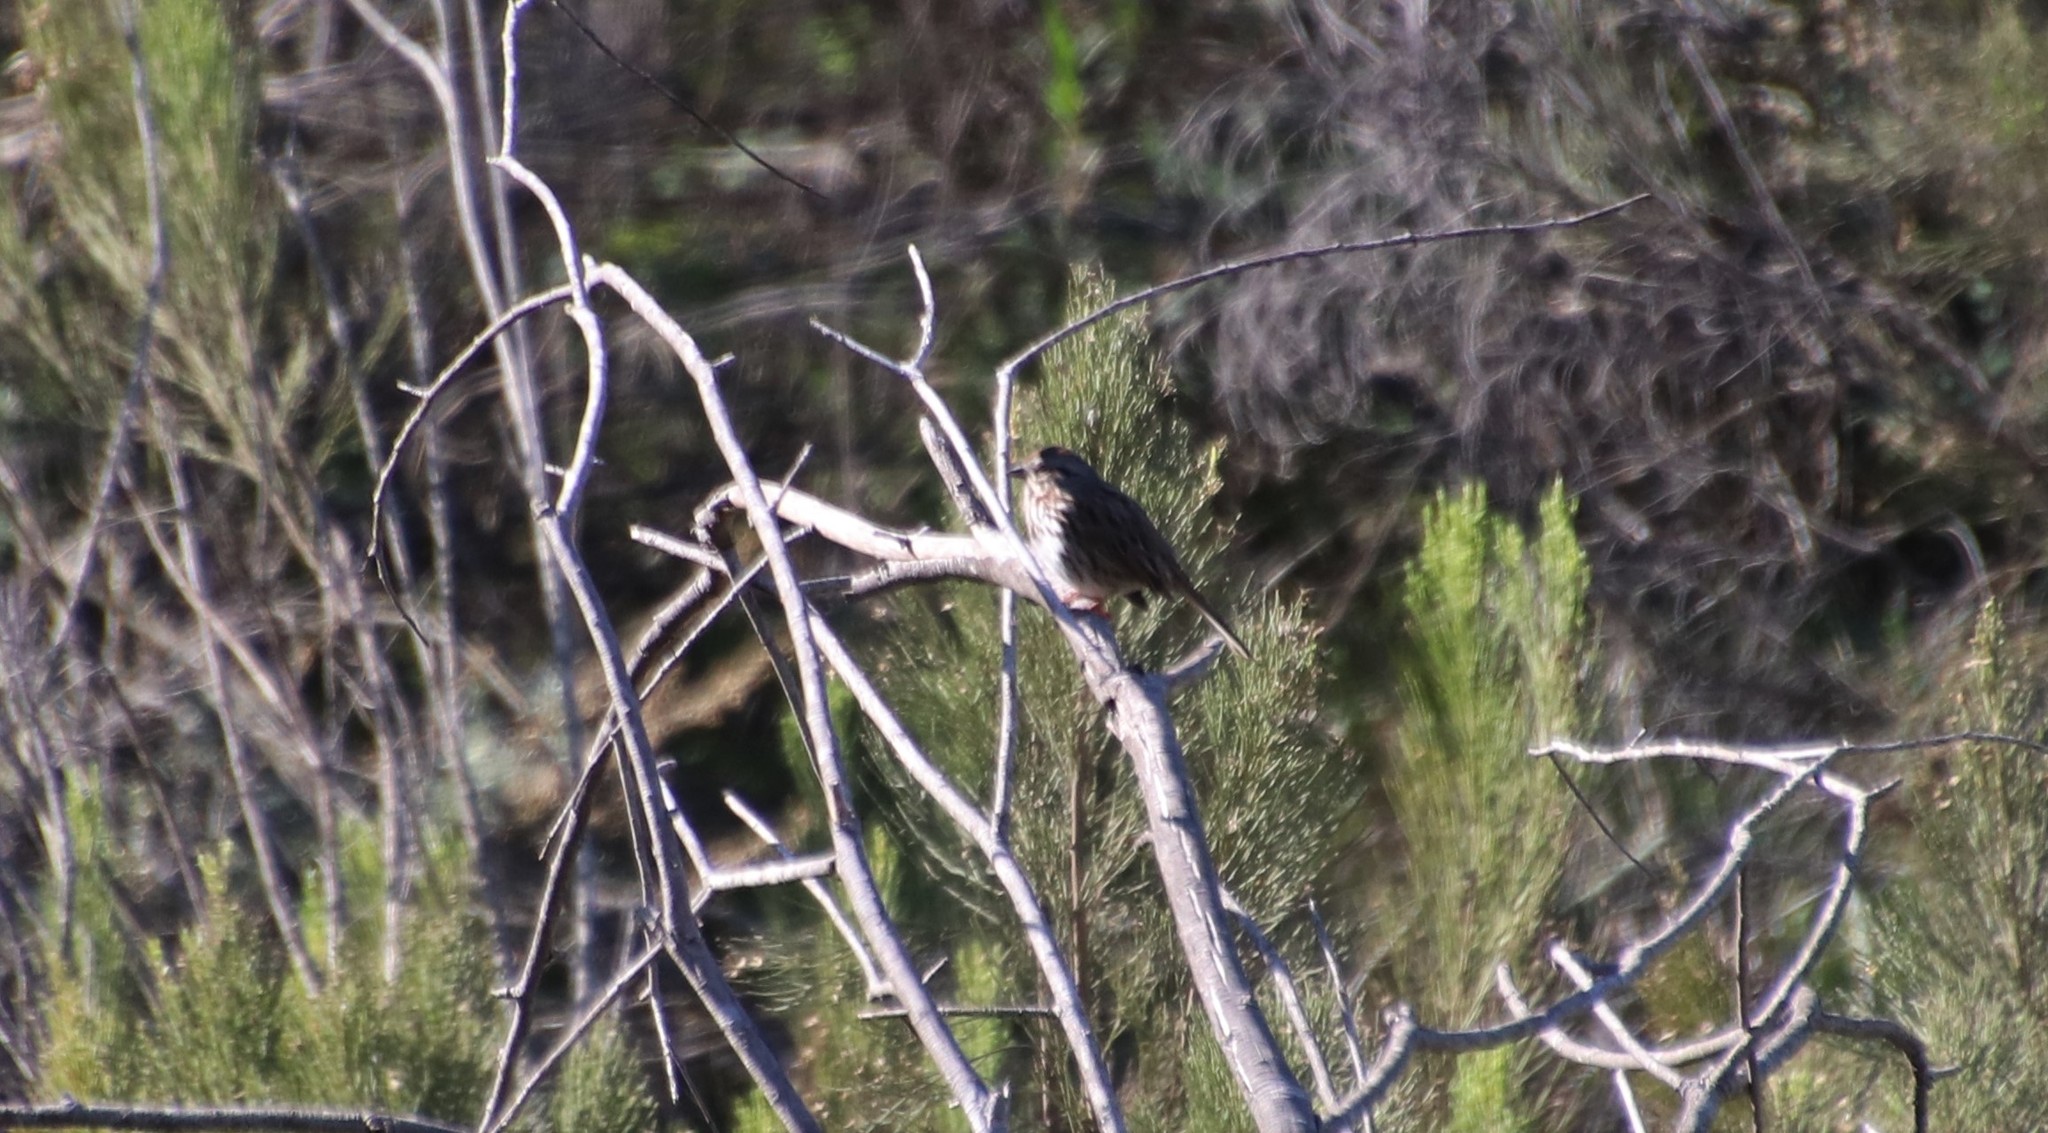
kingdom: Animalia
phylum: Chordata
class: Aves
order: Passeriformes
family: Passerellidae
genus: Melospiza
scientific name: Melospiza melodia
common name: Song sparrow
